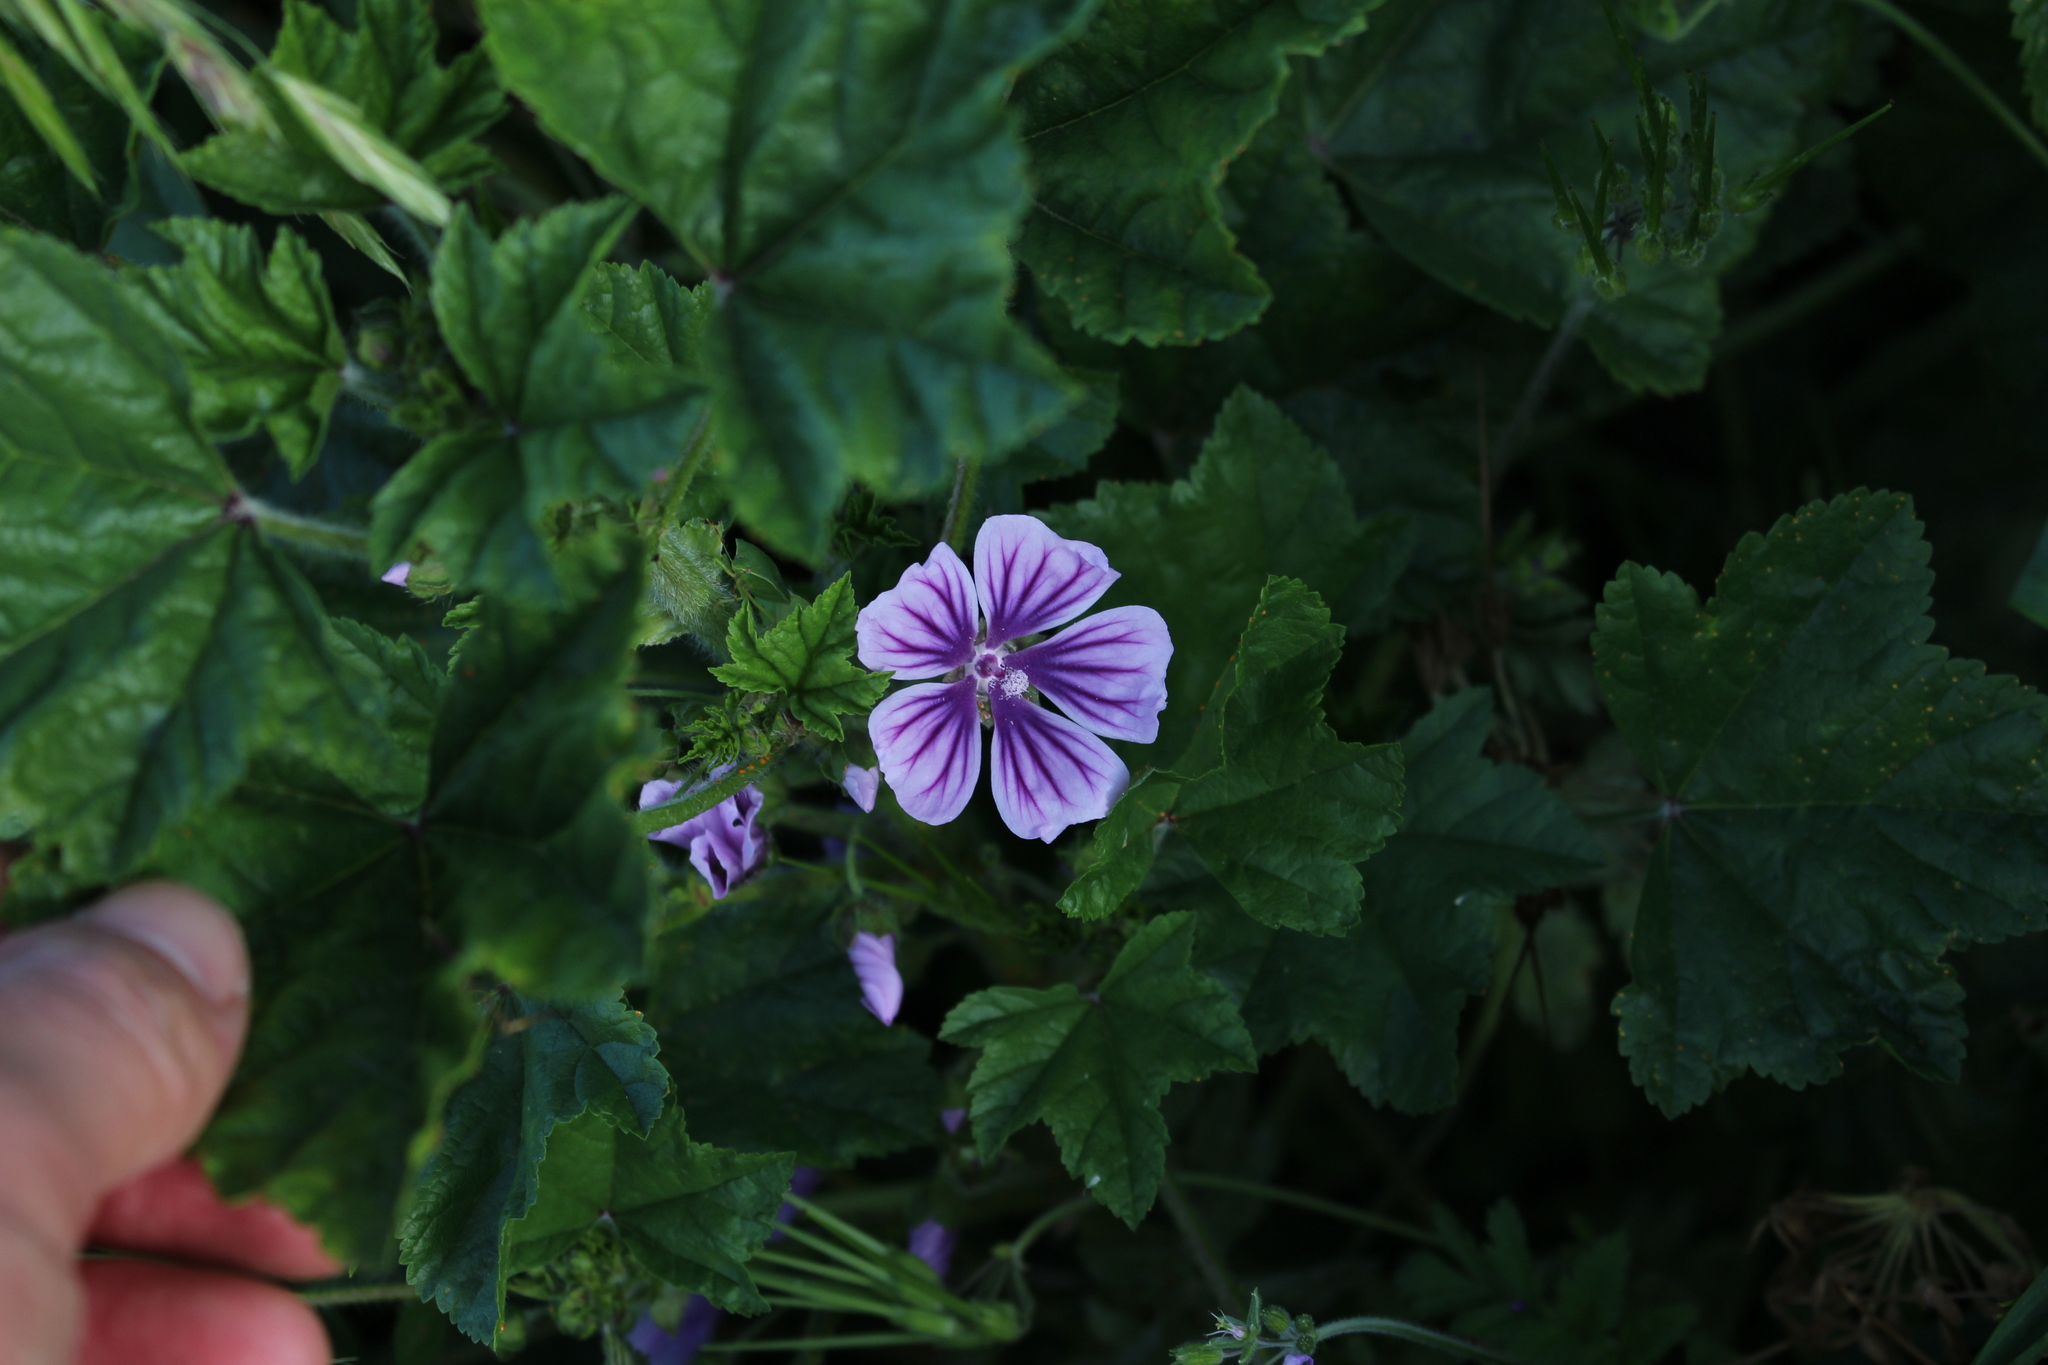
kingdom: Plantae
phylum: Tracheophyta
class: Magnoliopsida
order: Malvales
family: Malvaceae
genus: Malva
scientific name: Malva sylvestris
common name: Common mallow
